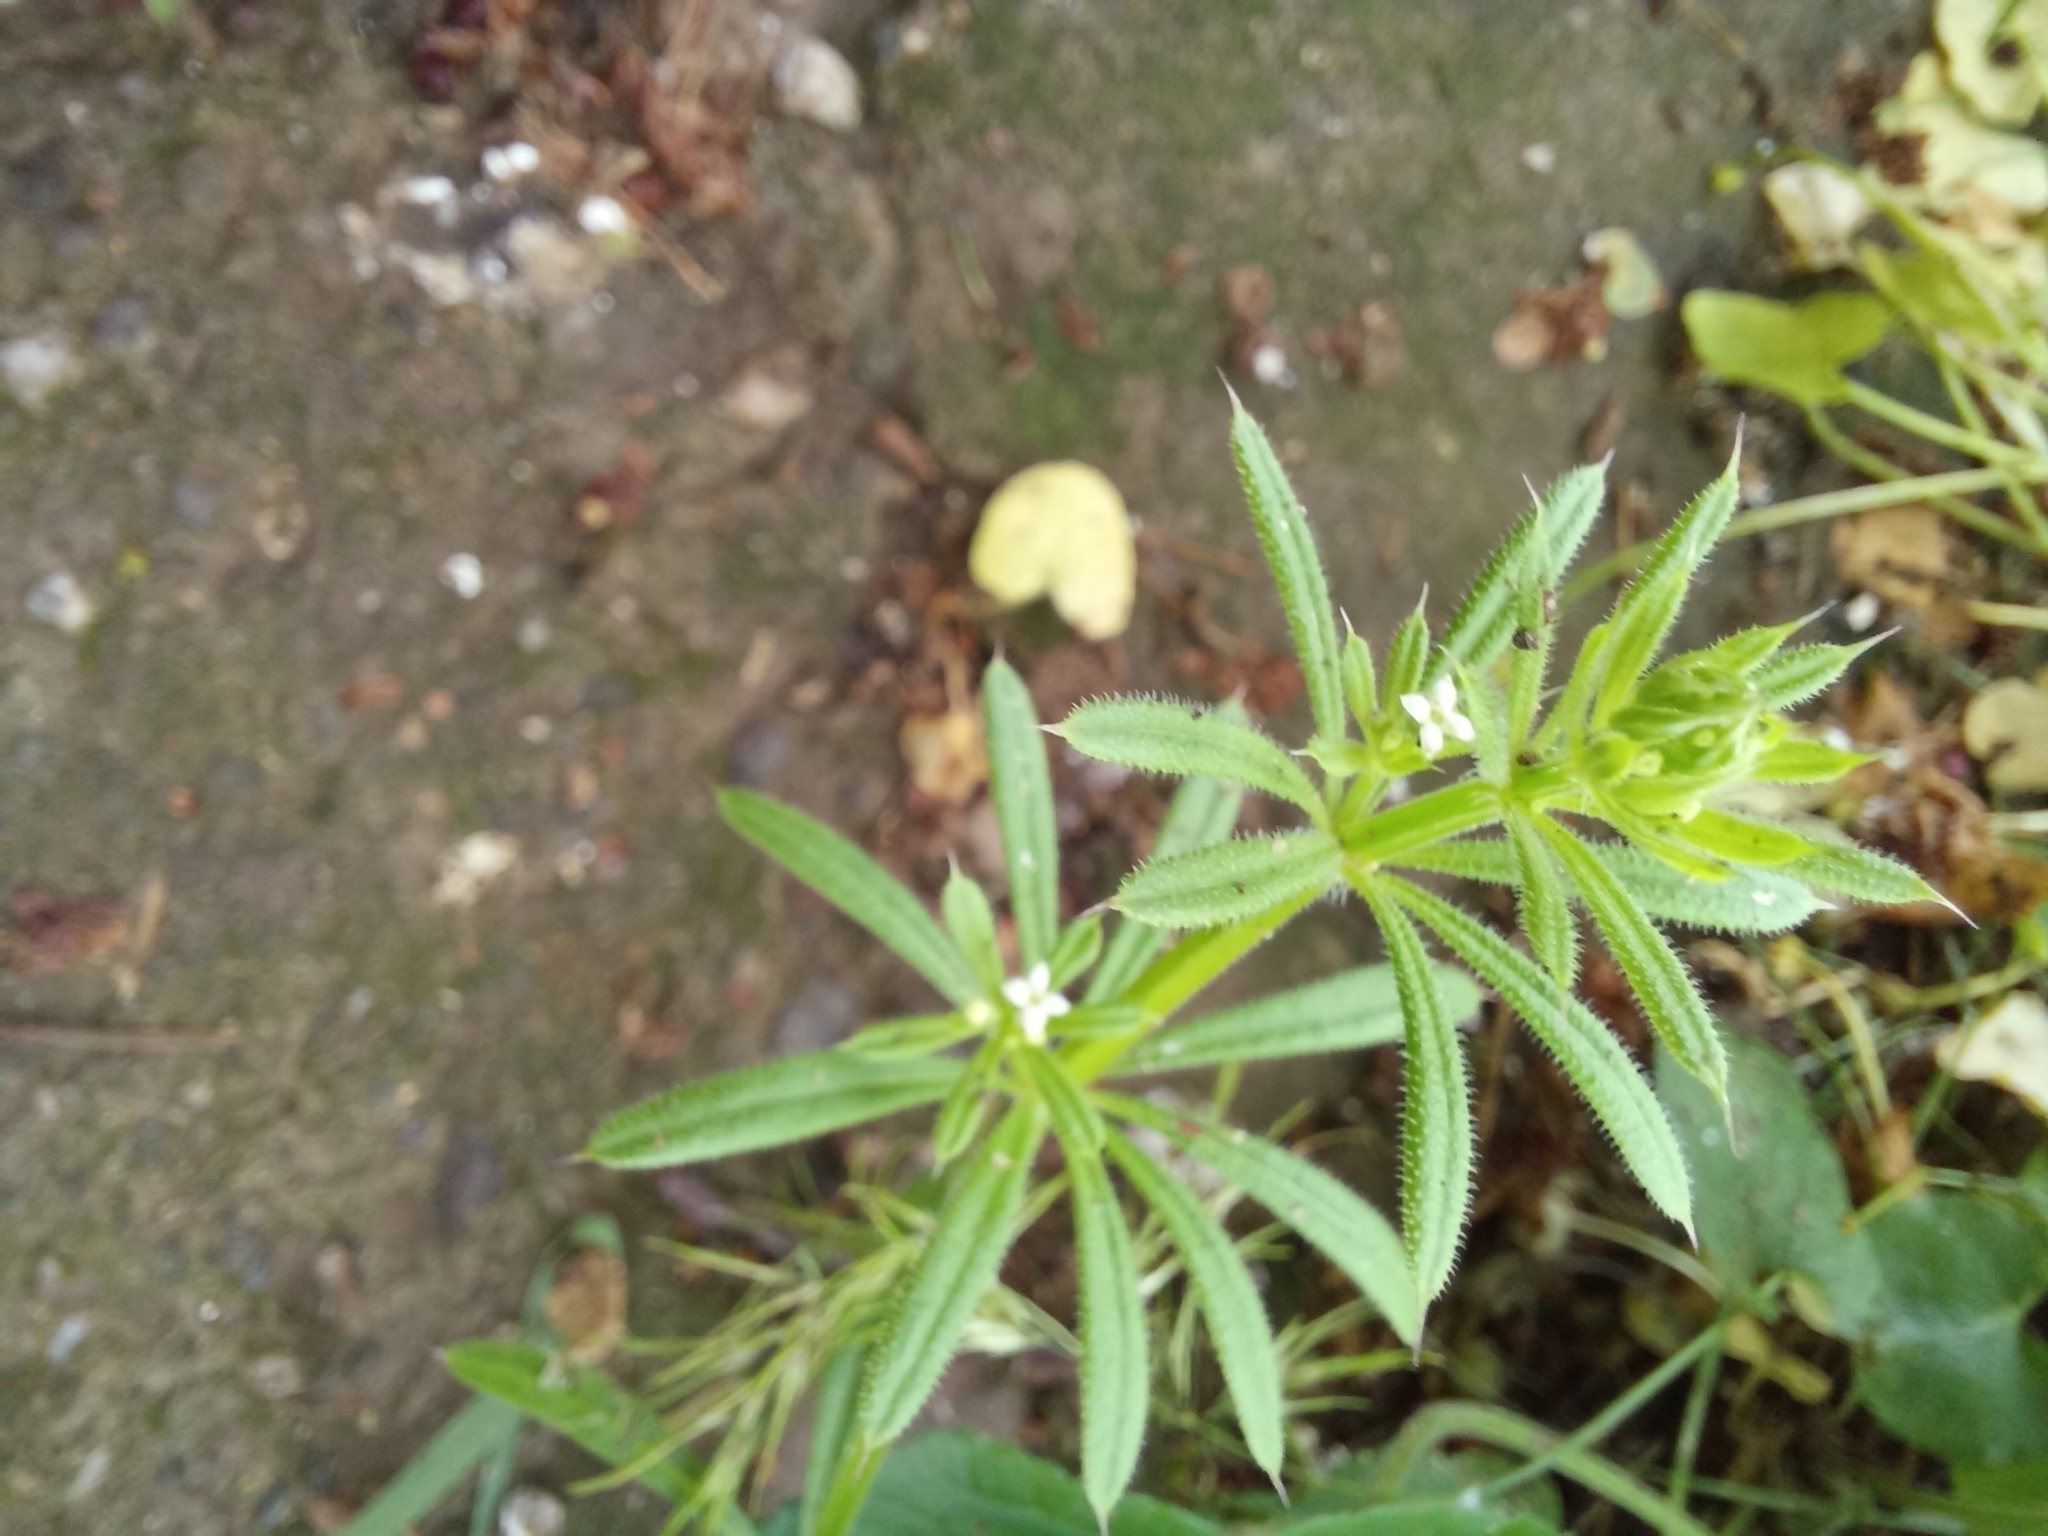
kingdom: Plantae
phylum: Tracheophyta
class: Magnoliopsida
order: Gentianales
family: Rubiaceae
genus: Galium
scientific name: Galium aparine
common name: Cleavers
